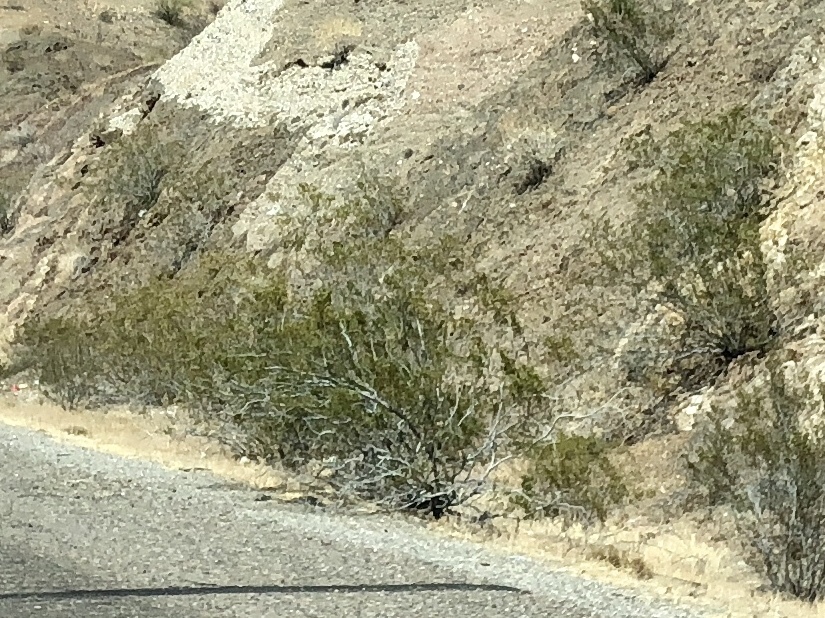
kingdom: Plantae
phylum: Tracheophyta
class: Magnoliopsida
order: Zygophyllales
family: Zygophyllaceae
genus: Larrea
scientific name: Larrea tridentata
